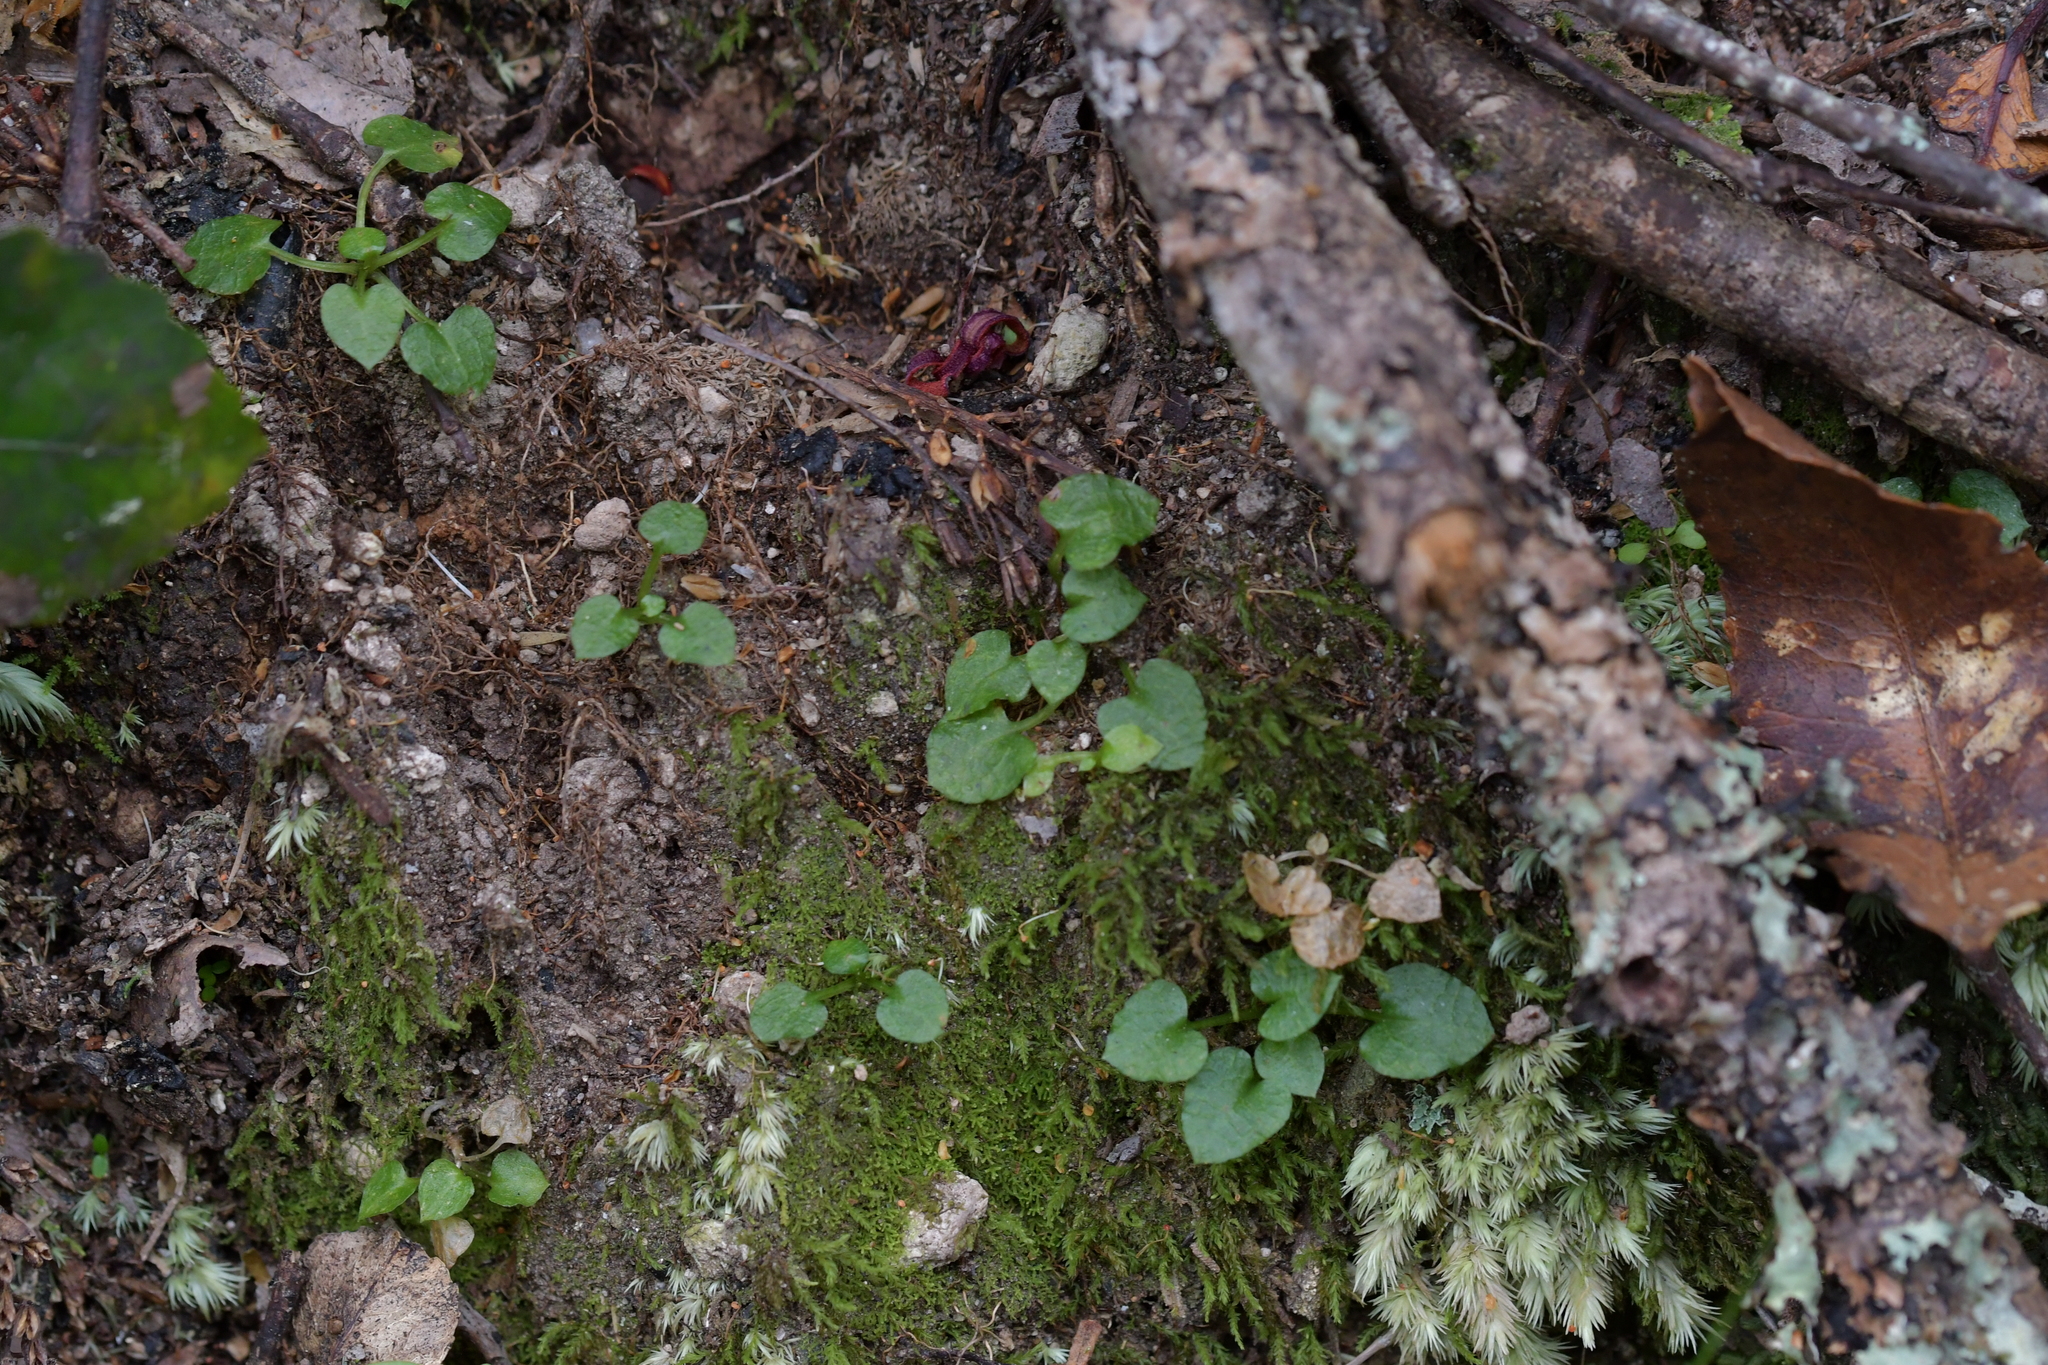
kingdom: Plantae
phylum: Tracheophyta
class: Liliopsida
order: Asparagales
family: Orchidaceae
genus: Pterostylis
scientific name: Pterostylis trullifolia
